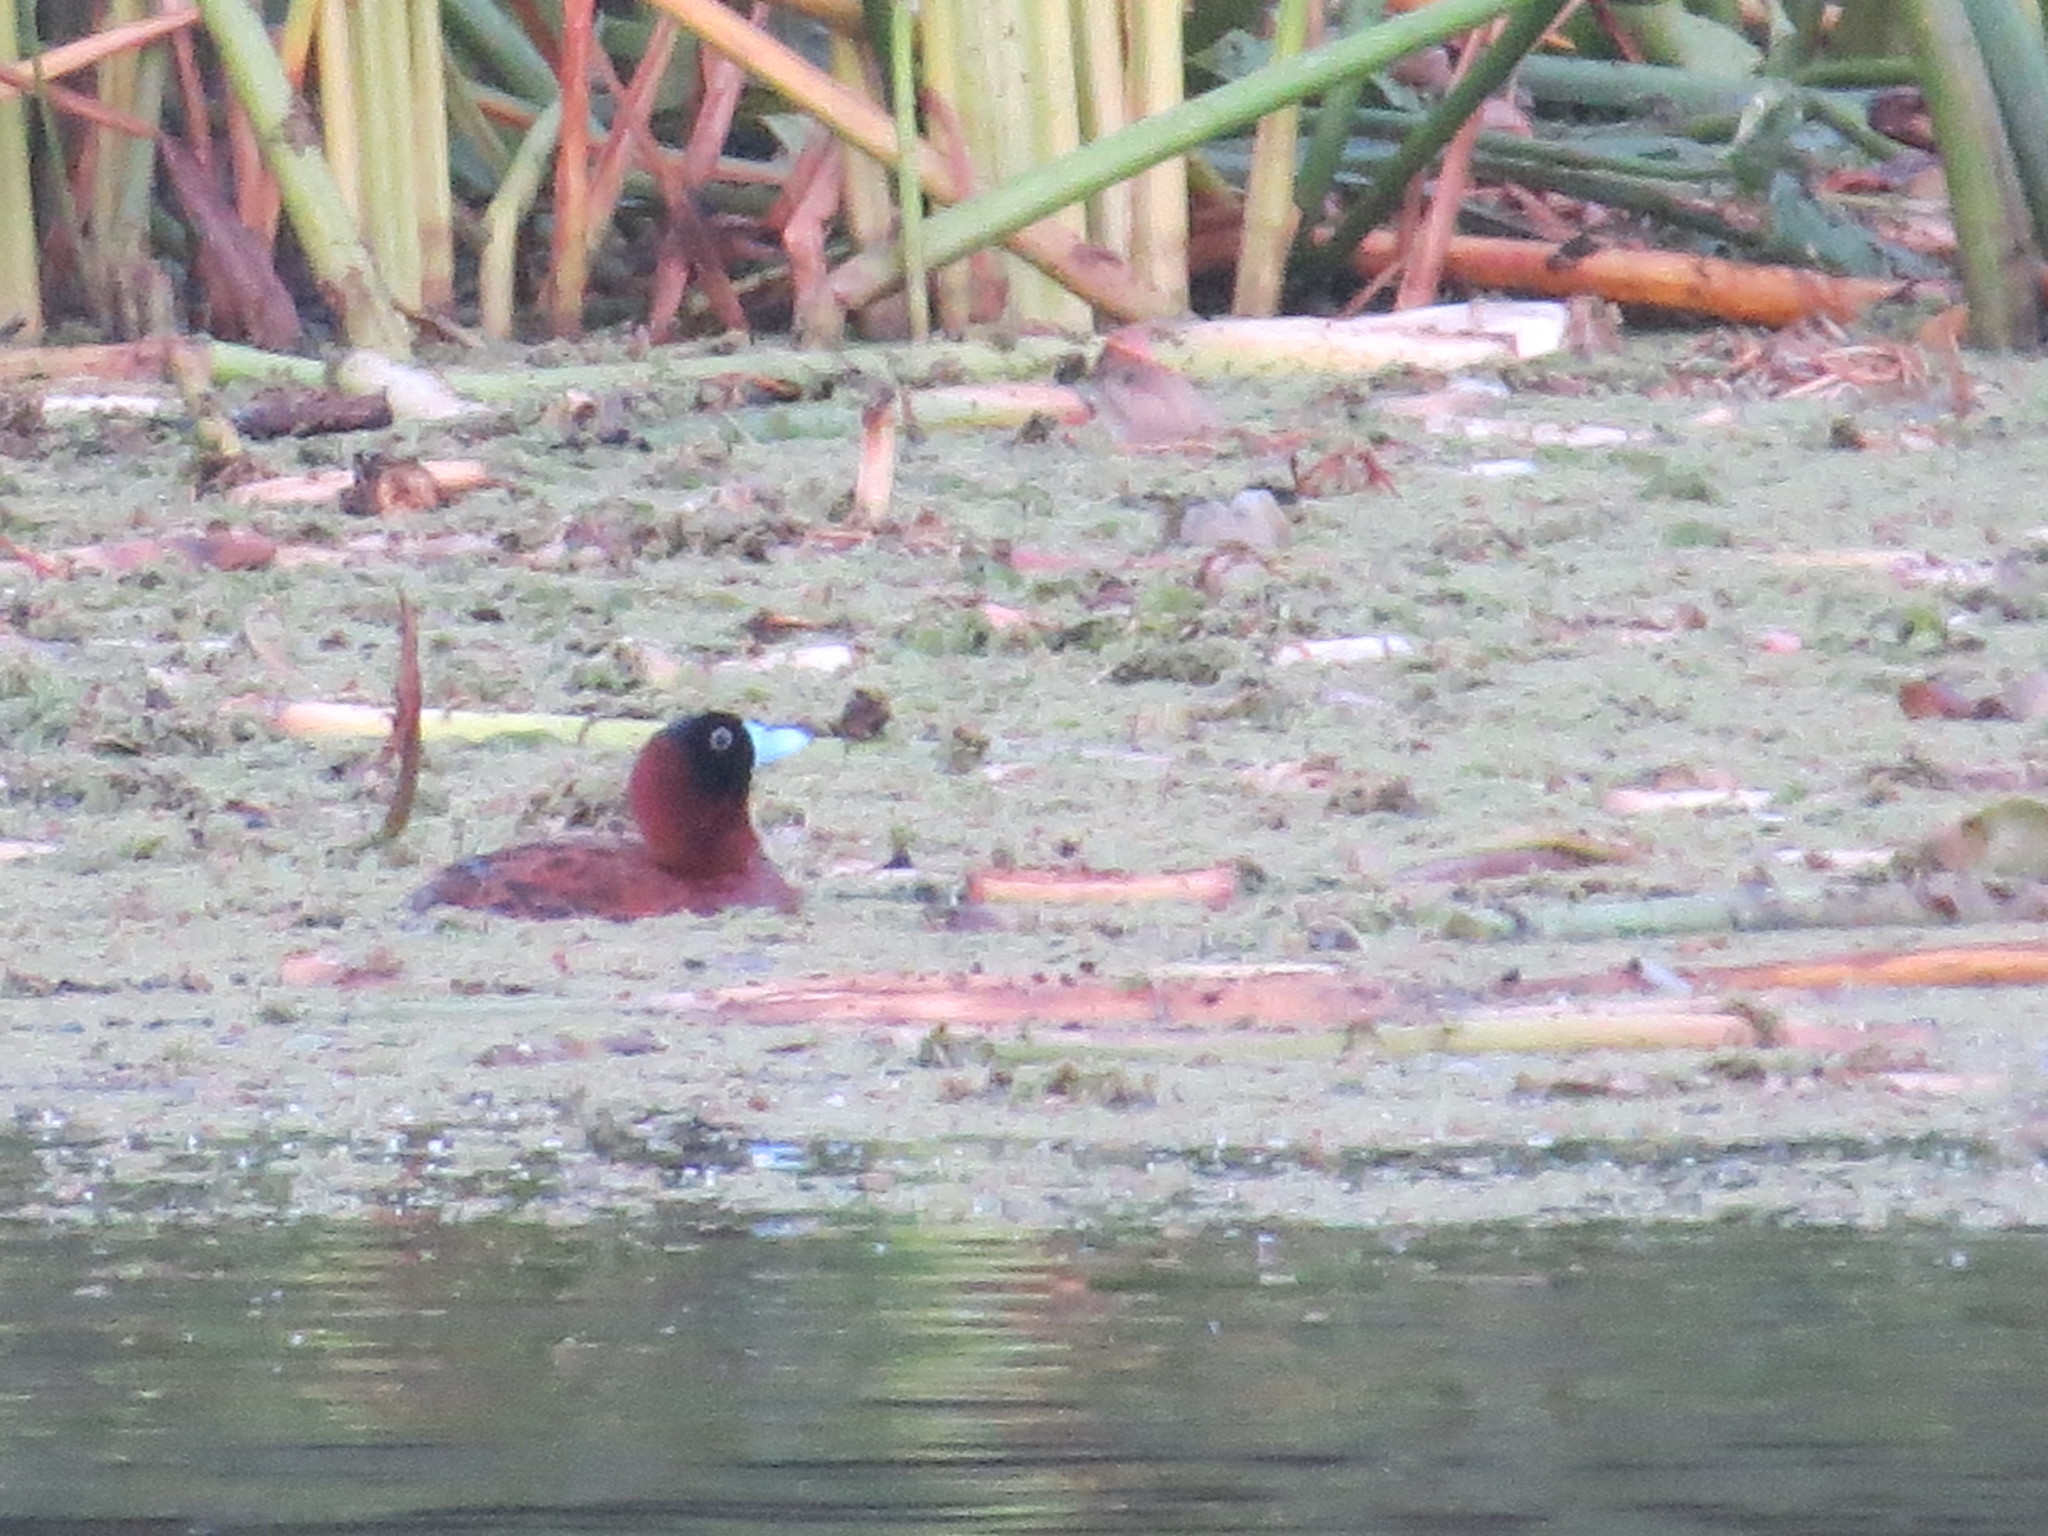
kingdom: Animalia
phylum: Chordata
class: Aves
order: Anseriformes
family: Anatidae
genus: Nomonyx
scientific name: Nomonyx dominicus
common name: Masked duck
